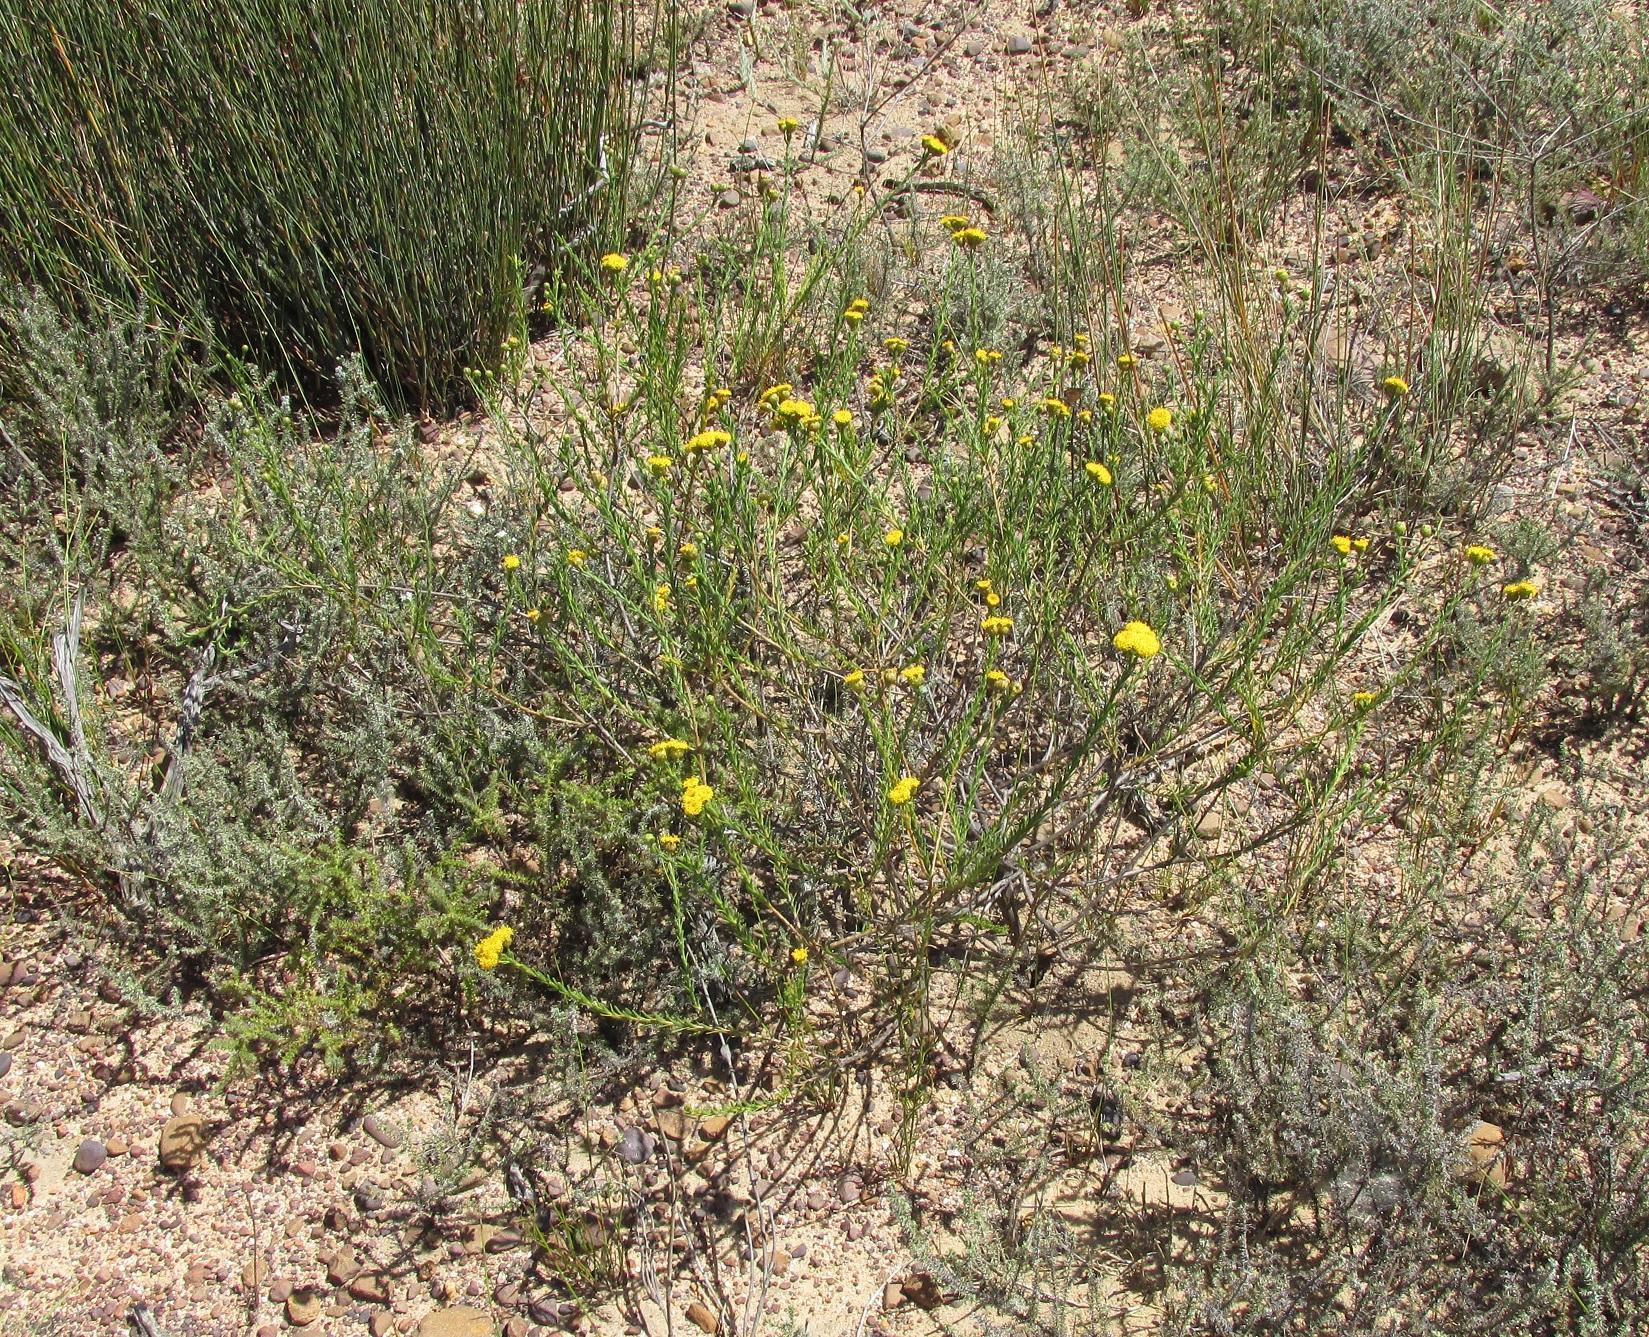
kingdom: Plantae
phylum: Tracheophyta
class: Magnoliopsida
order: Asterales
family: Asteraceae
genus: Athanasia
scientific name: Athanasia crenata
